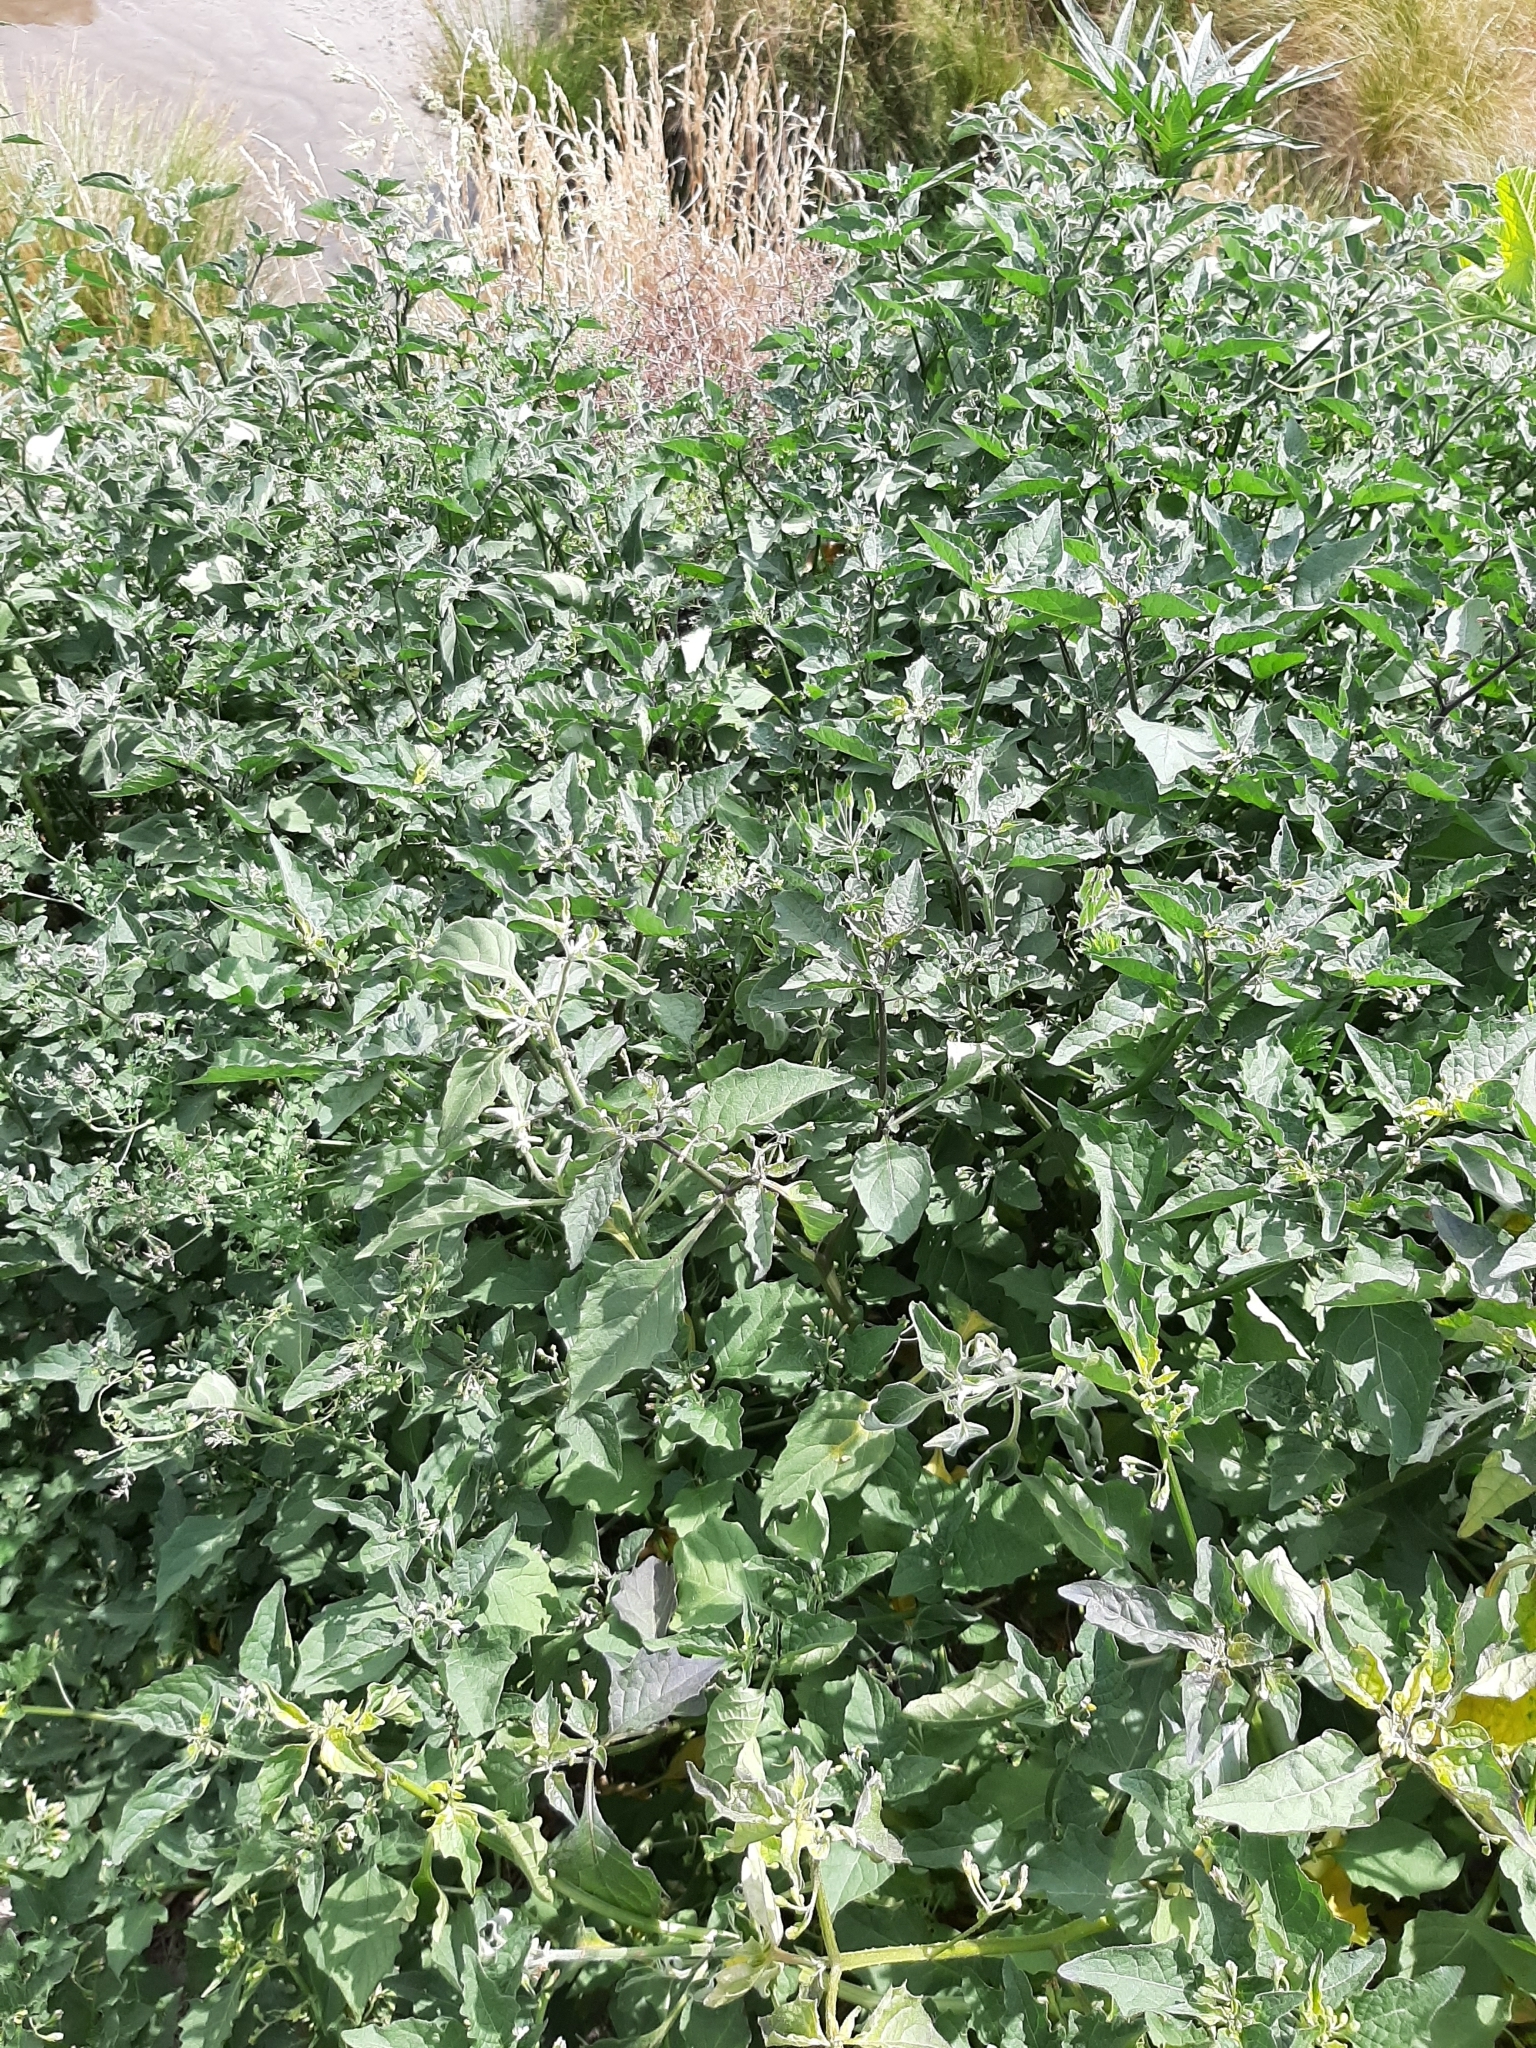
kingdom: Plantae
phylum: Tracheophyta
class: Magnoliopsida
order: Solanales
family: Solanaceae
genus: Solanum
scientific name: Solanum nigrum
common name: Black nightshade
